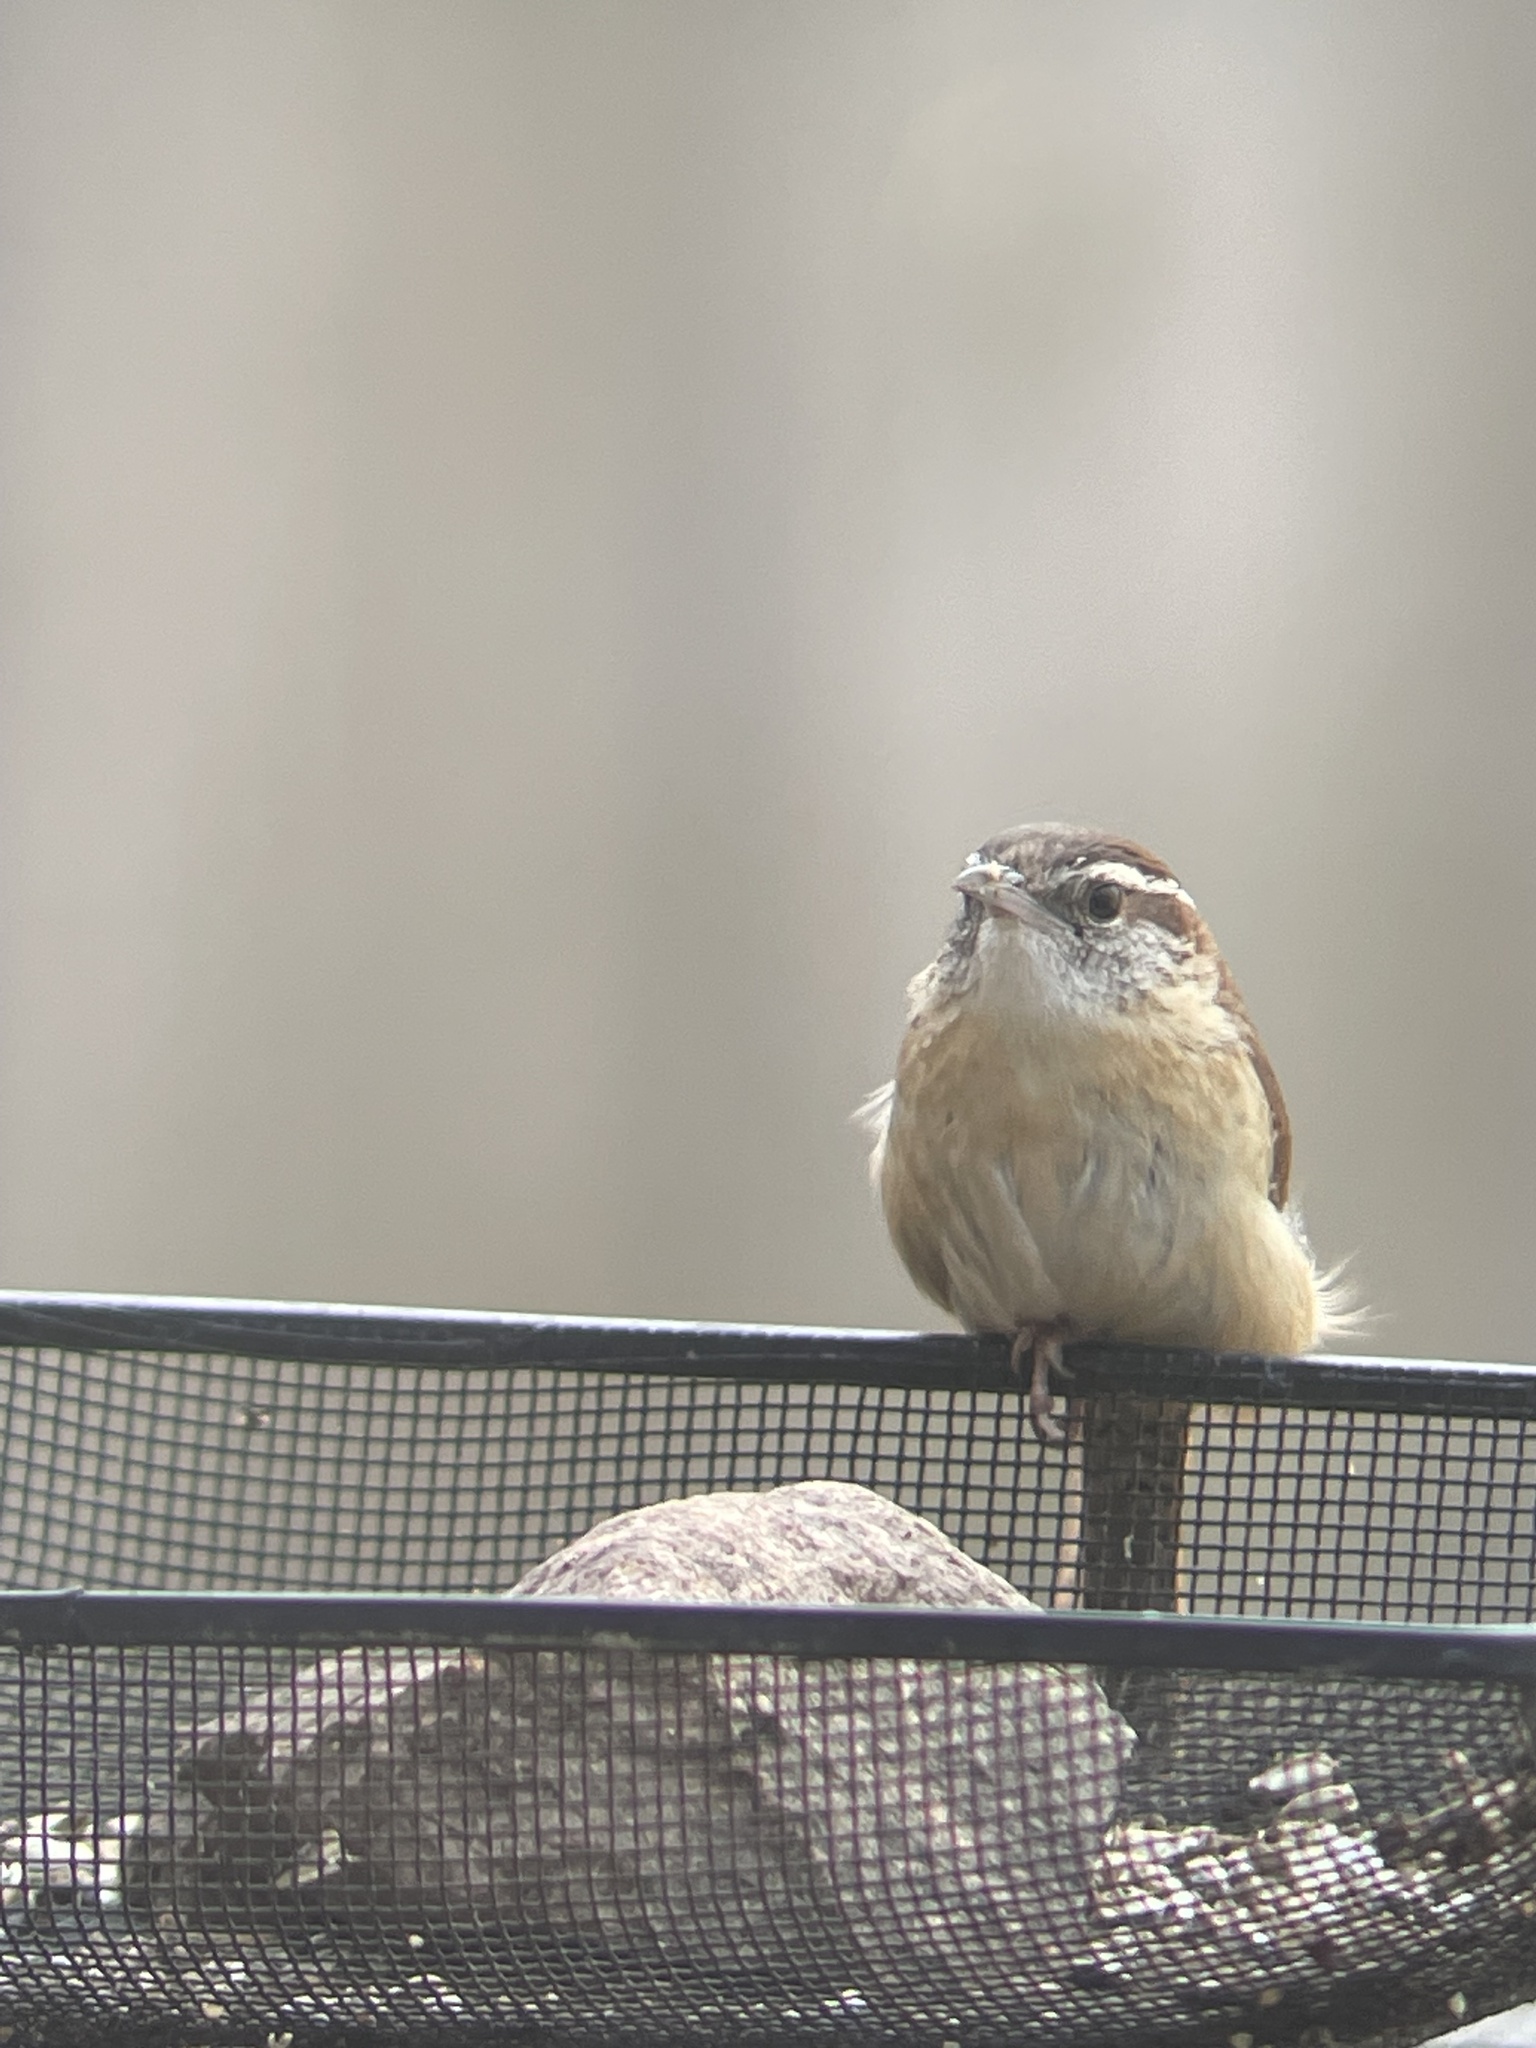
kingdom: Animalia
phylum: Chordata
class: Aves
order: Passeriformes
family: Troglodytidae
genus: Thryothorus
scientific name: Thryothorus ludovicianus
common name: Carolina wren
